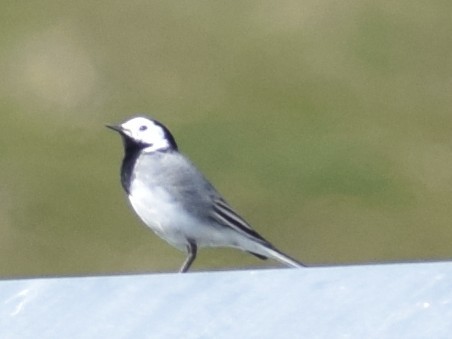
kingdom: Animalia
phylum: Chordata
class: Aves
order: Passeriformes
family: Motacillidae
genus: Motacilla
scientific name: Motacilla alba
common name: White wagtail
